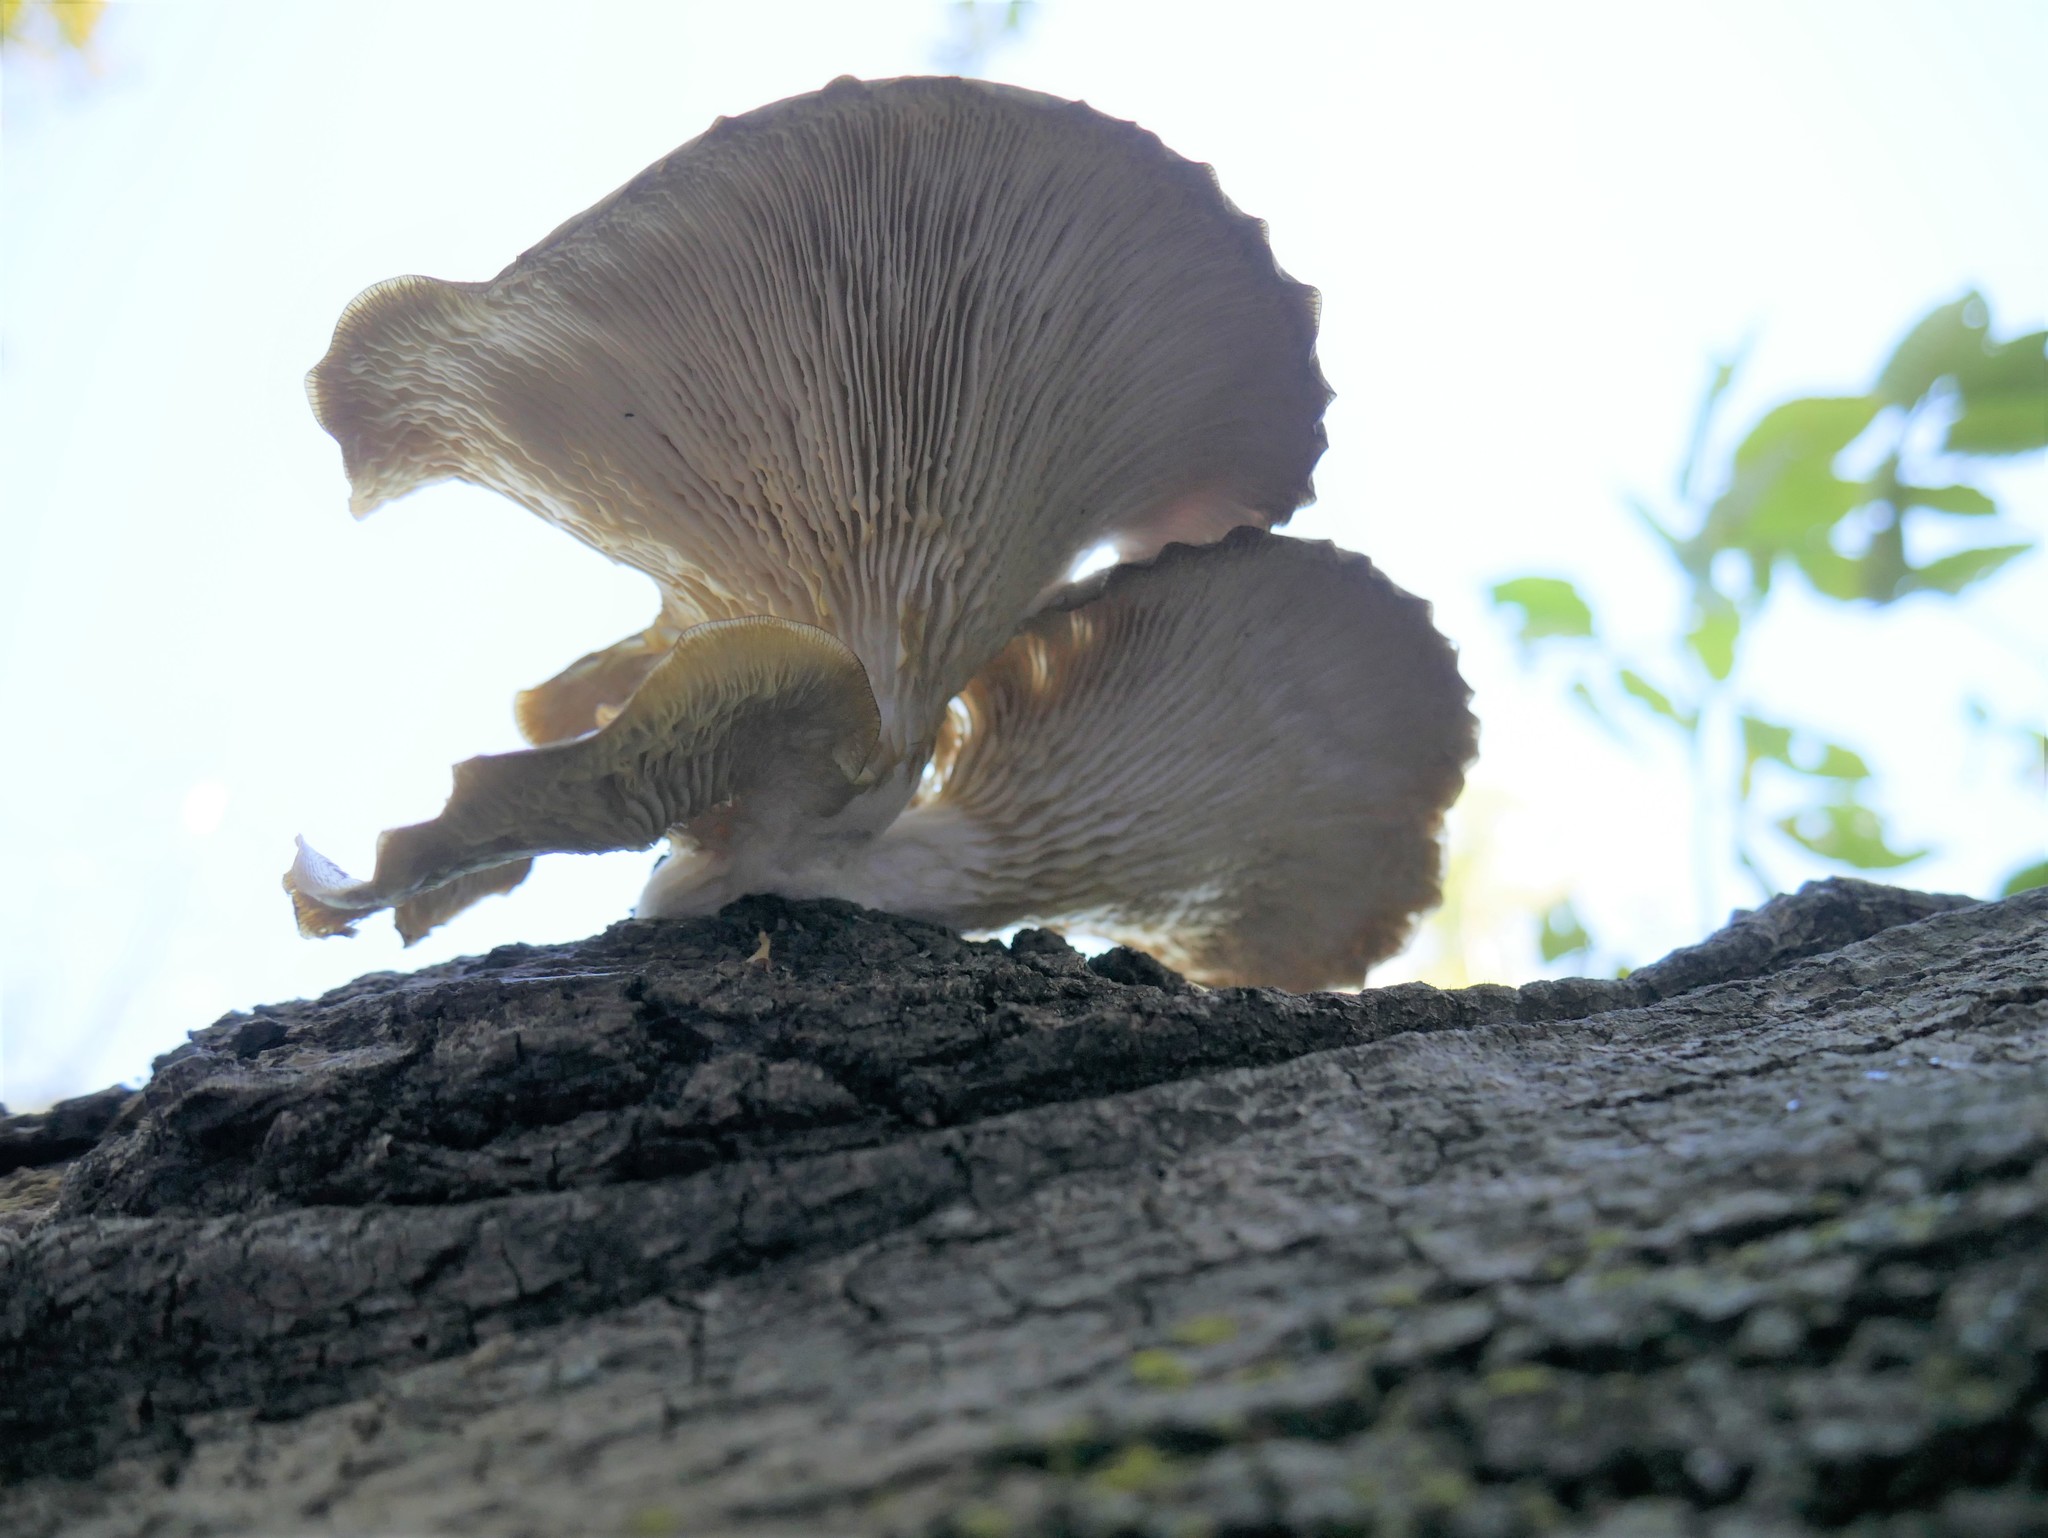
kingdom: Fungi
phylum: Basidiomycota
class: Agaricomycetes
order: Agaricales
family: Pleurotaceae
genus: Pleurotus
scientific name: Pleurotus ostreatus
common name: Oyster mushroom
